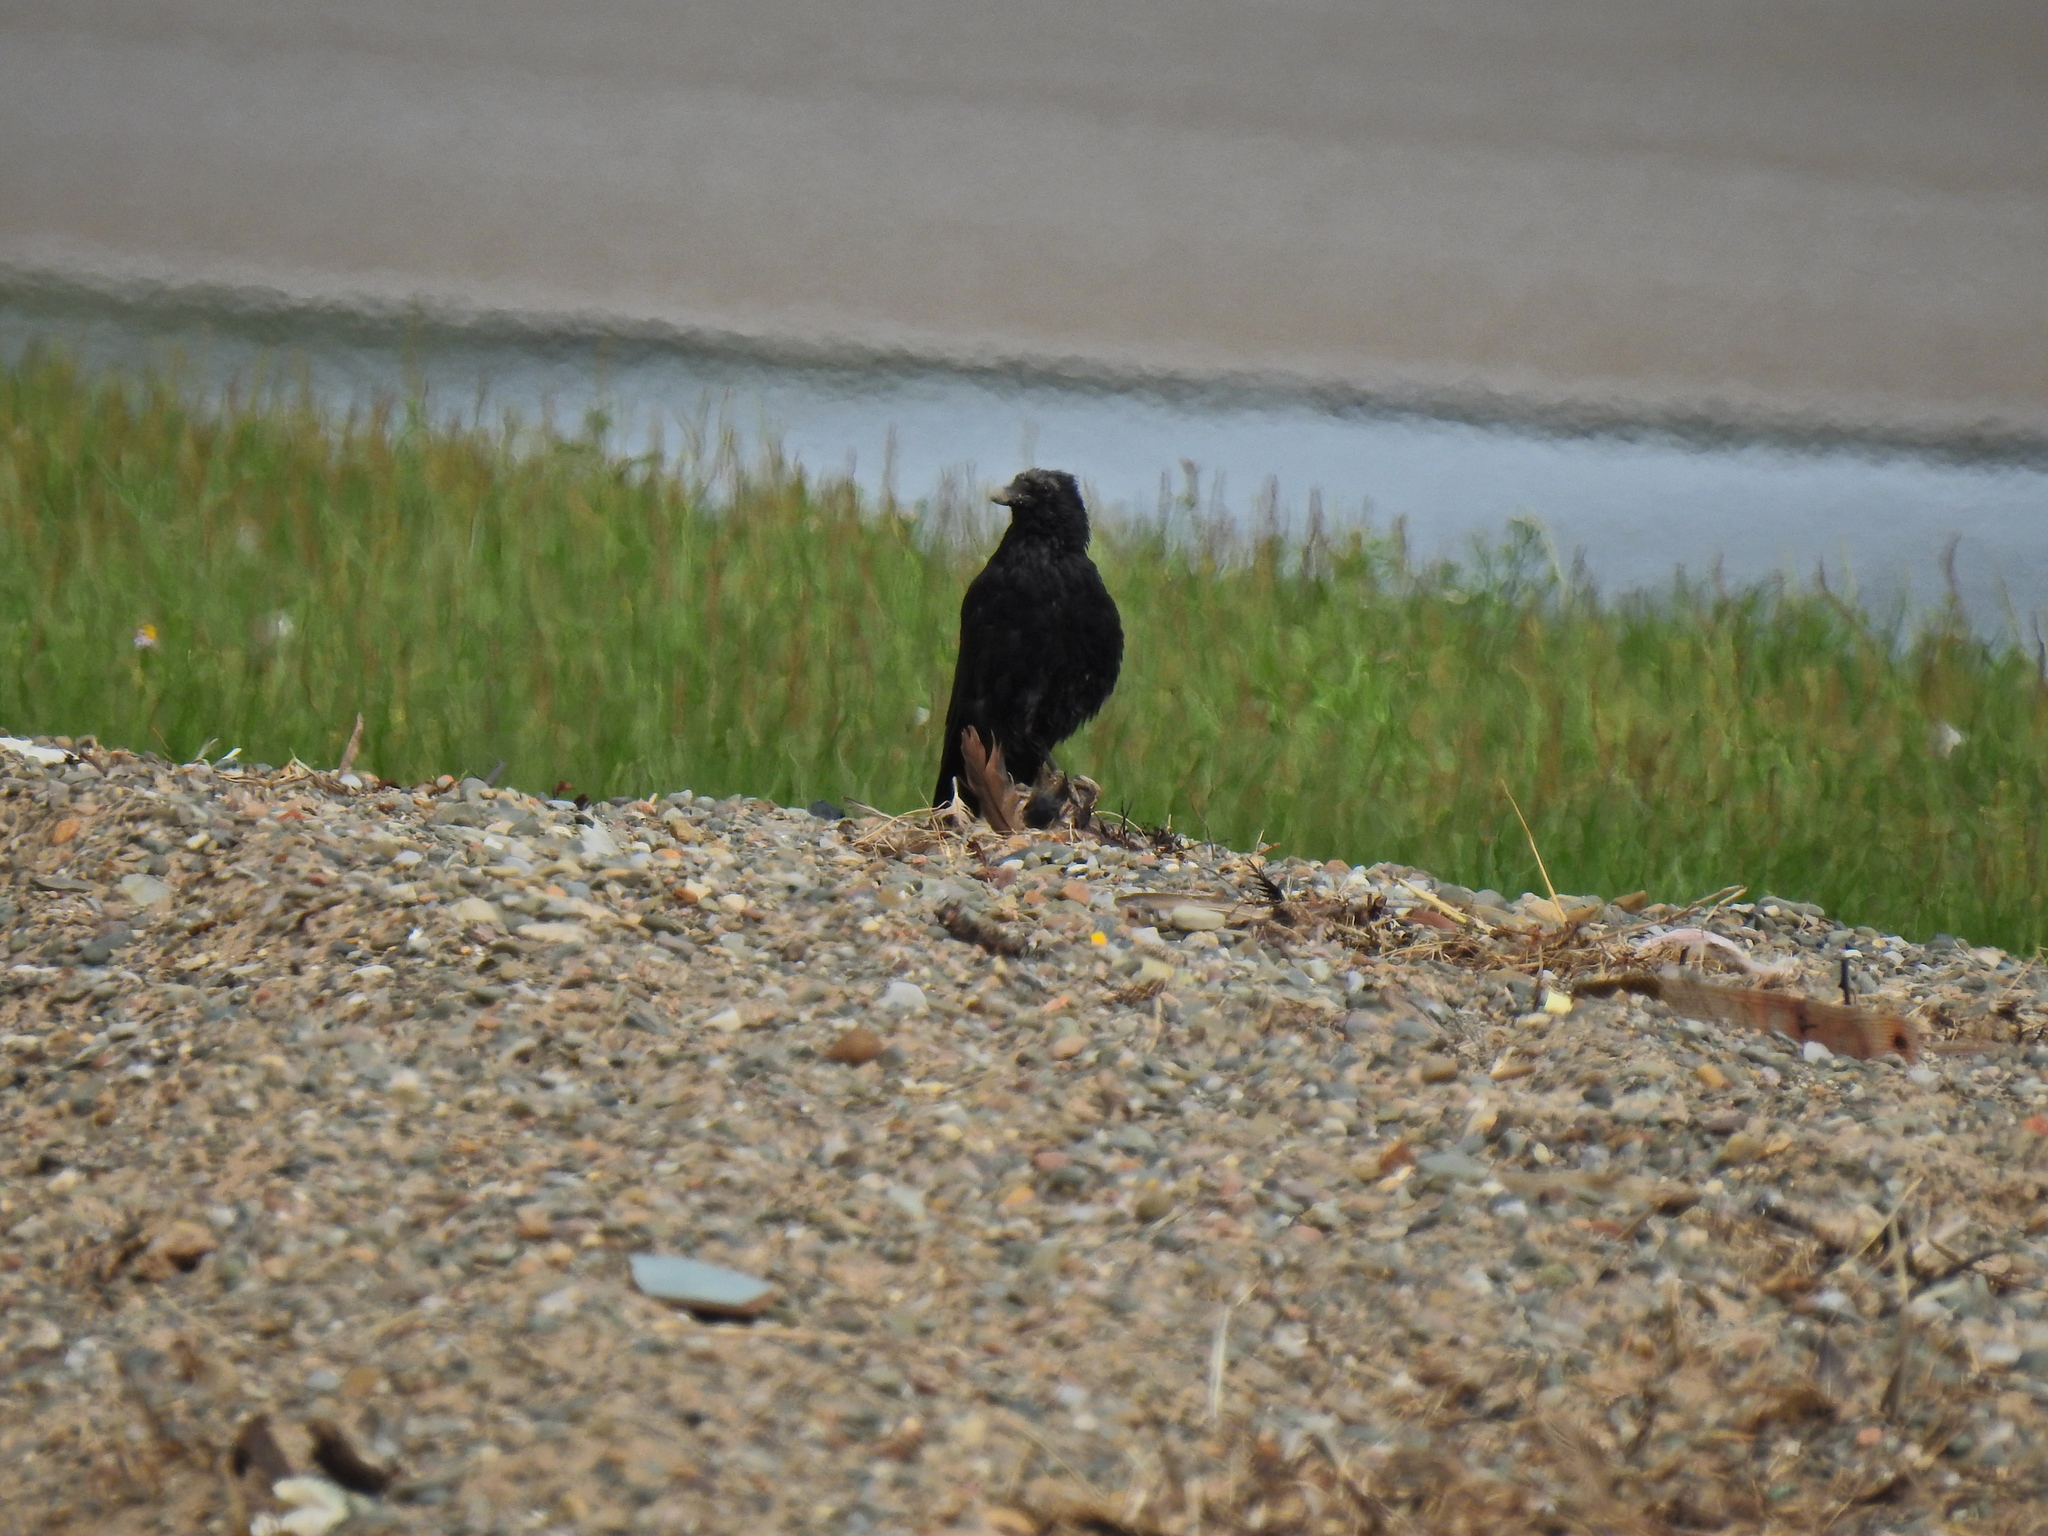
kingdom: Animalia
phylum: Chordata
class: Aves
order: Passeriformes
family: Corvidae
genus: Corvus
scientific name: Corvus corone
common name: Carrion crow
